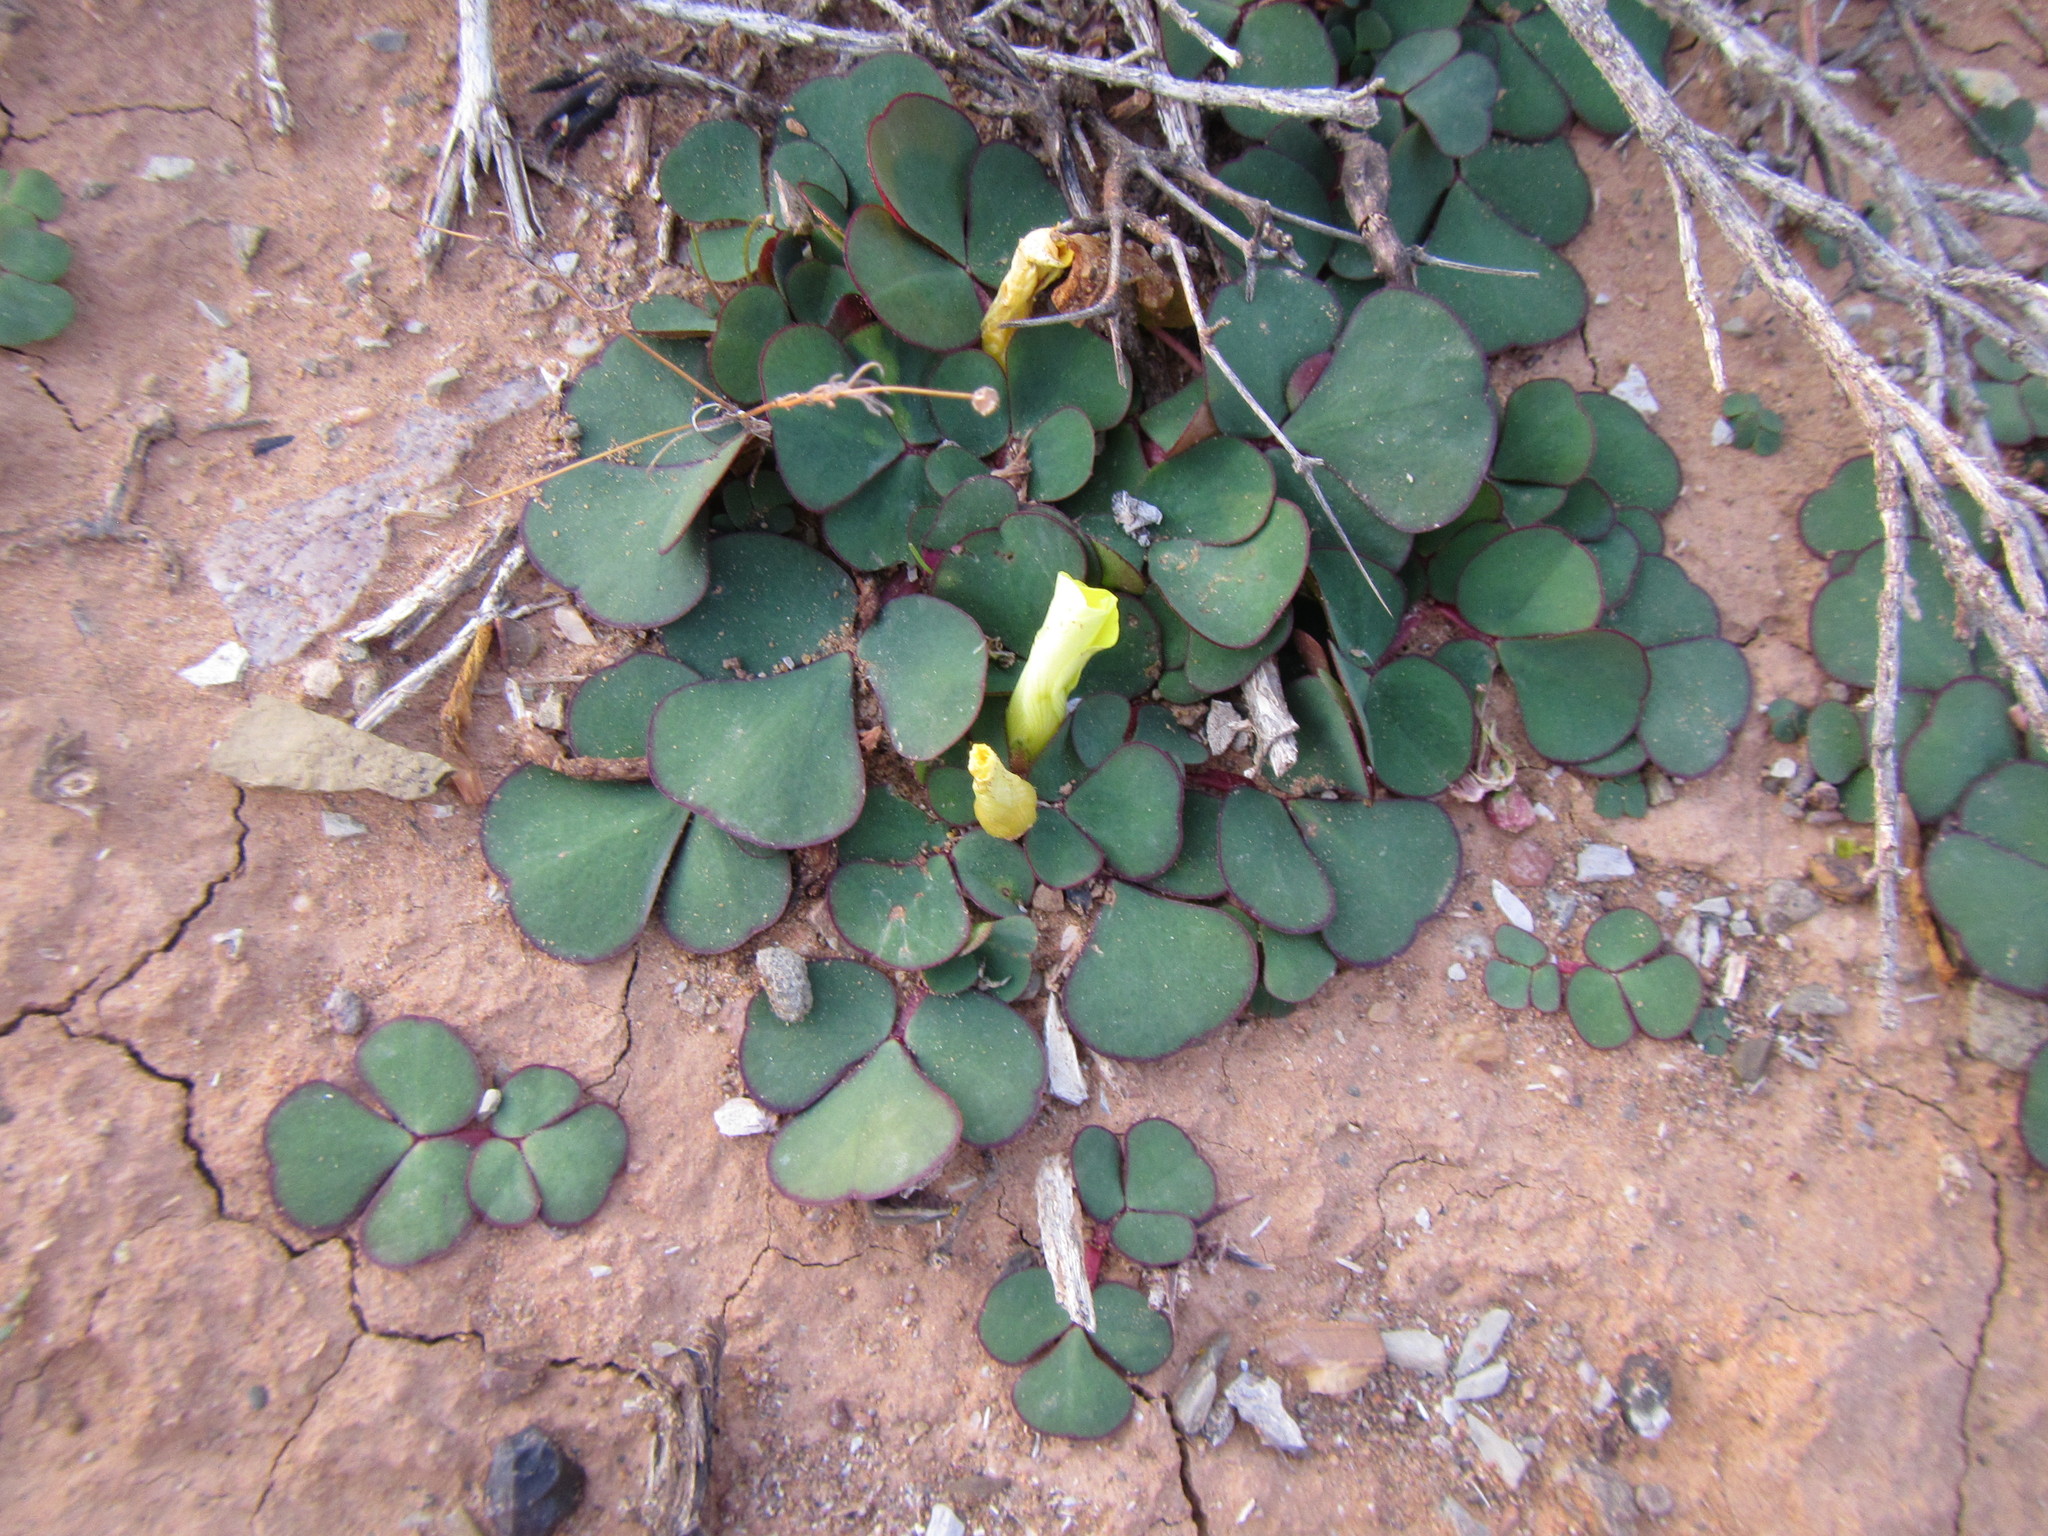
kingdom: Plantae
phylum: Tracheophyta
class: Magnoliopsida
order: Oxalidales
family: Oxalidaceae
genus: Oxalis
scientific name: Oxalis purpurea
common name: Purple woodsorrel
